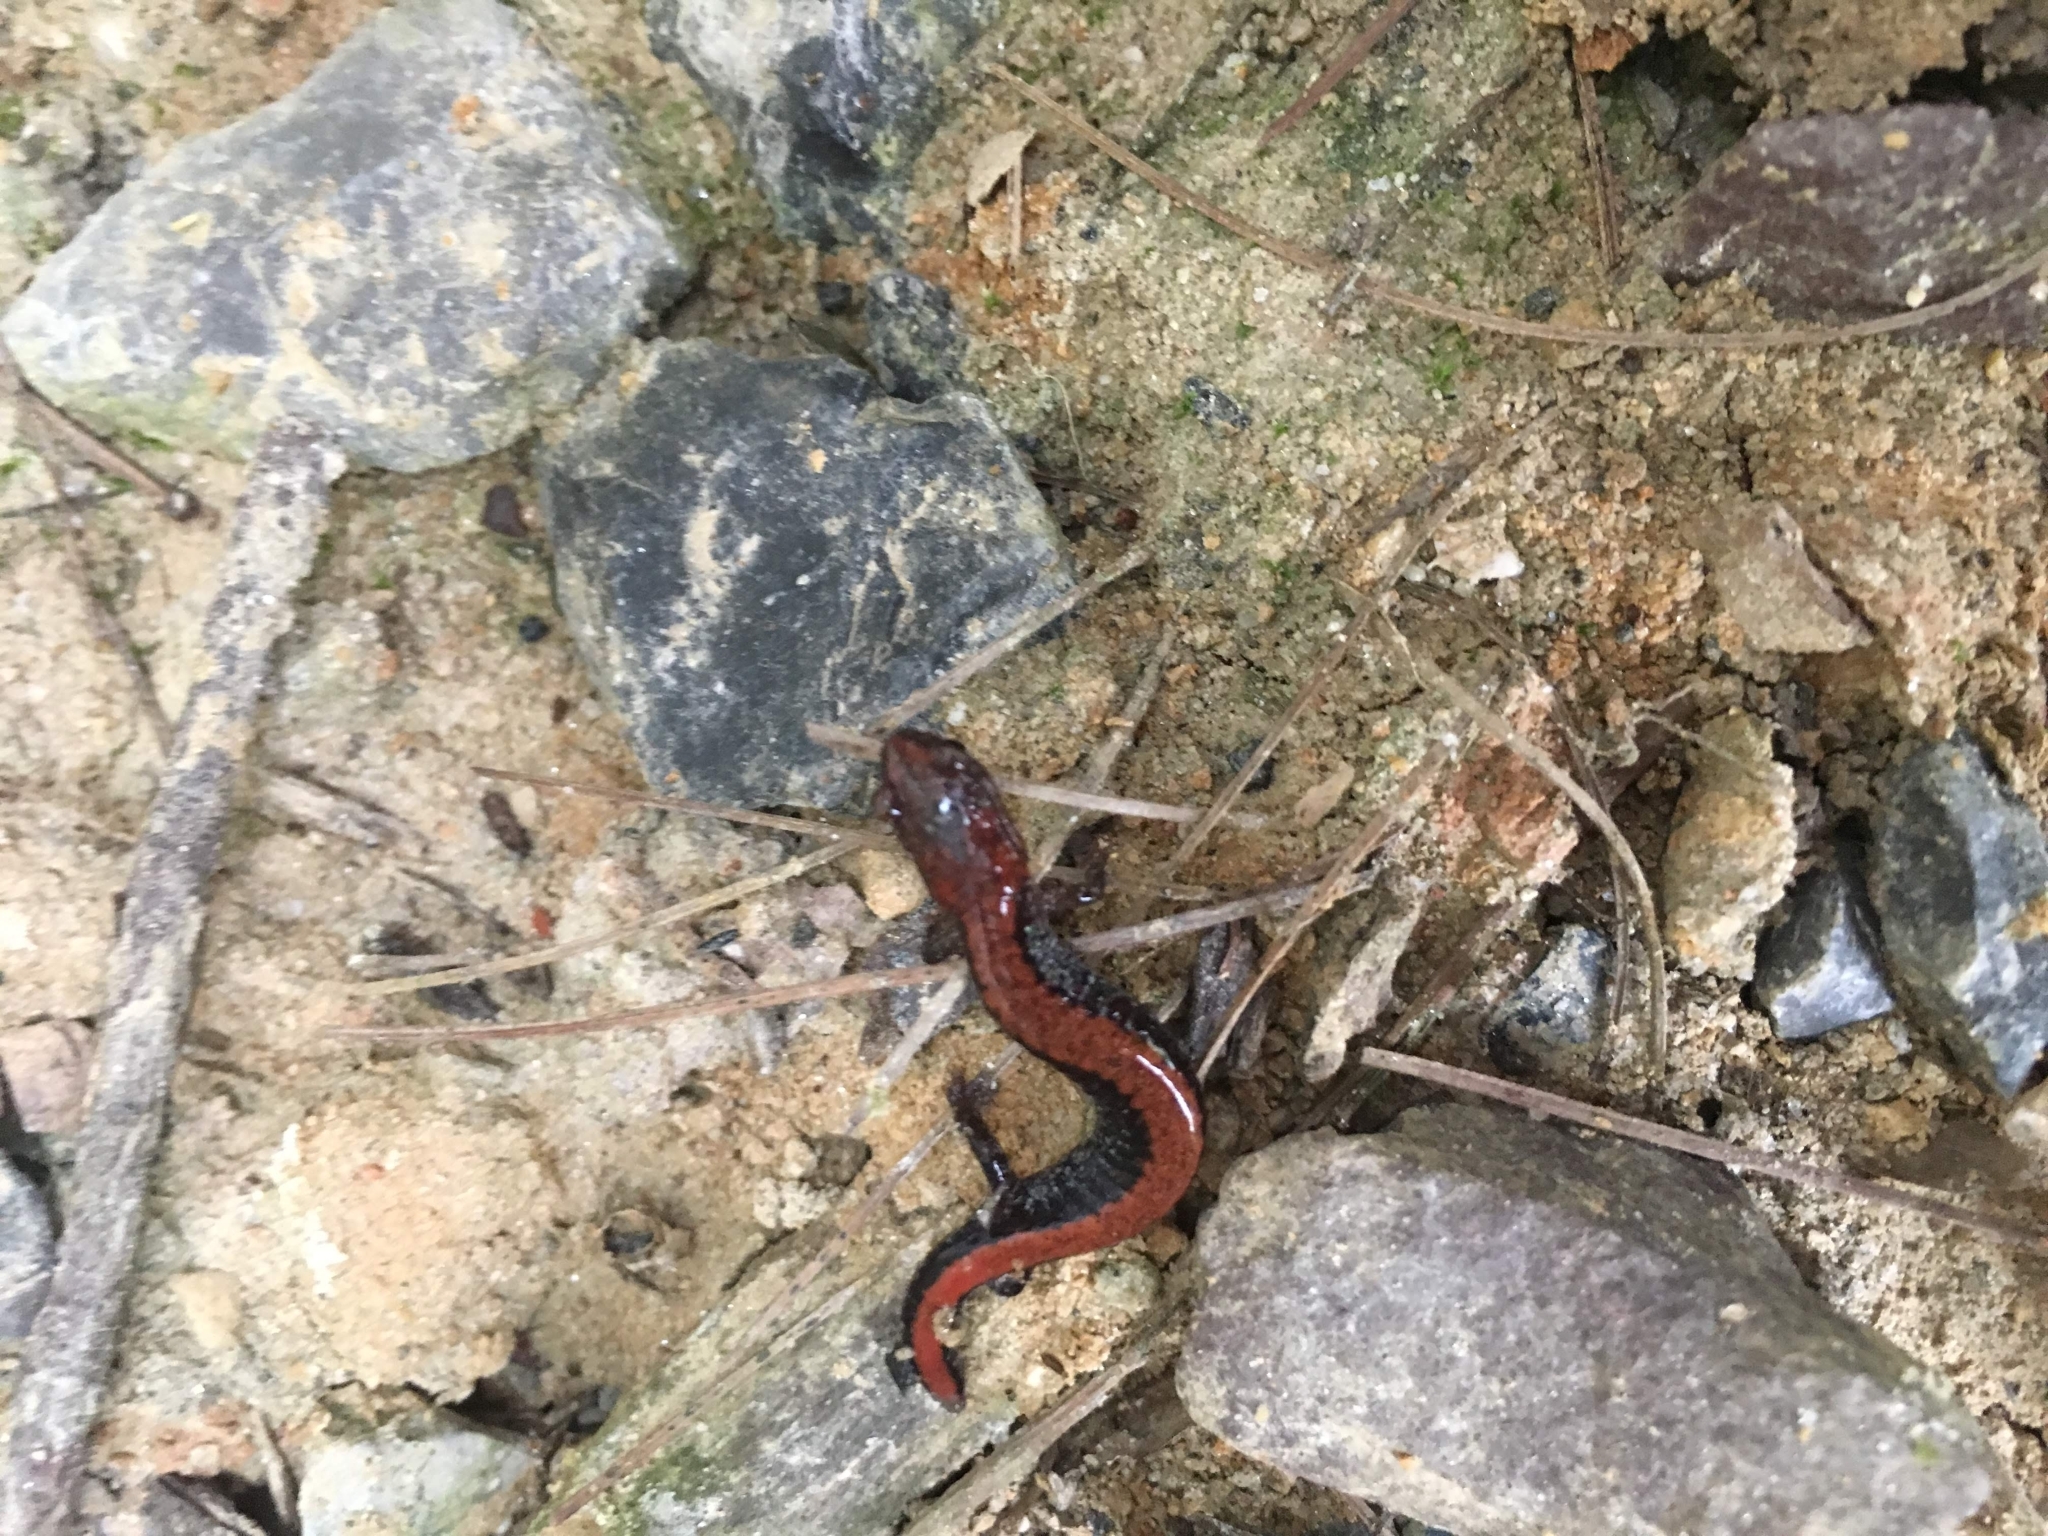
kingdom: Animalia
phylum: Chordata
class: Amphibia
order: Caudata
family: Plethodontidae
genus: Plethodon
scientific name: Plethodon cinereus
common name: Redback salamander
